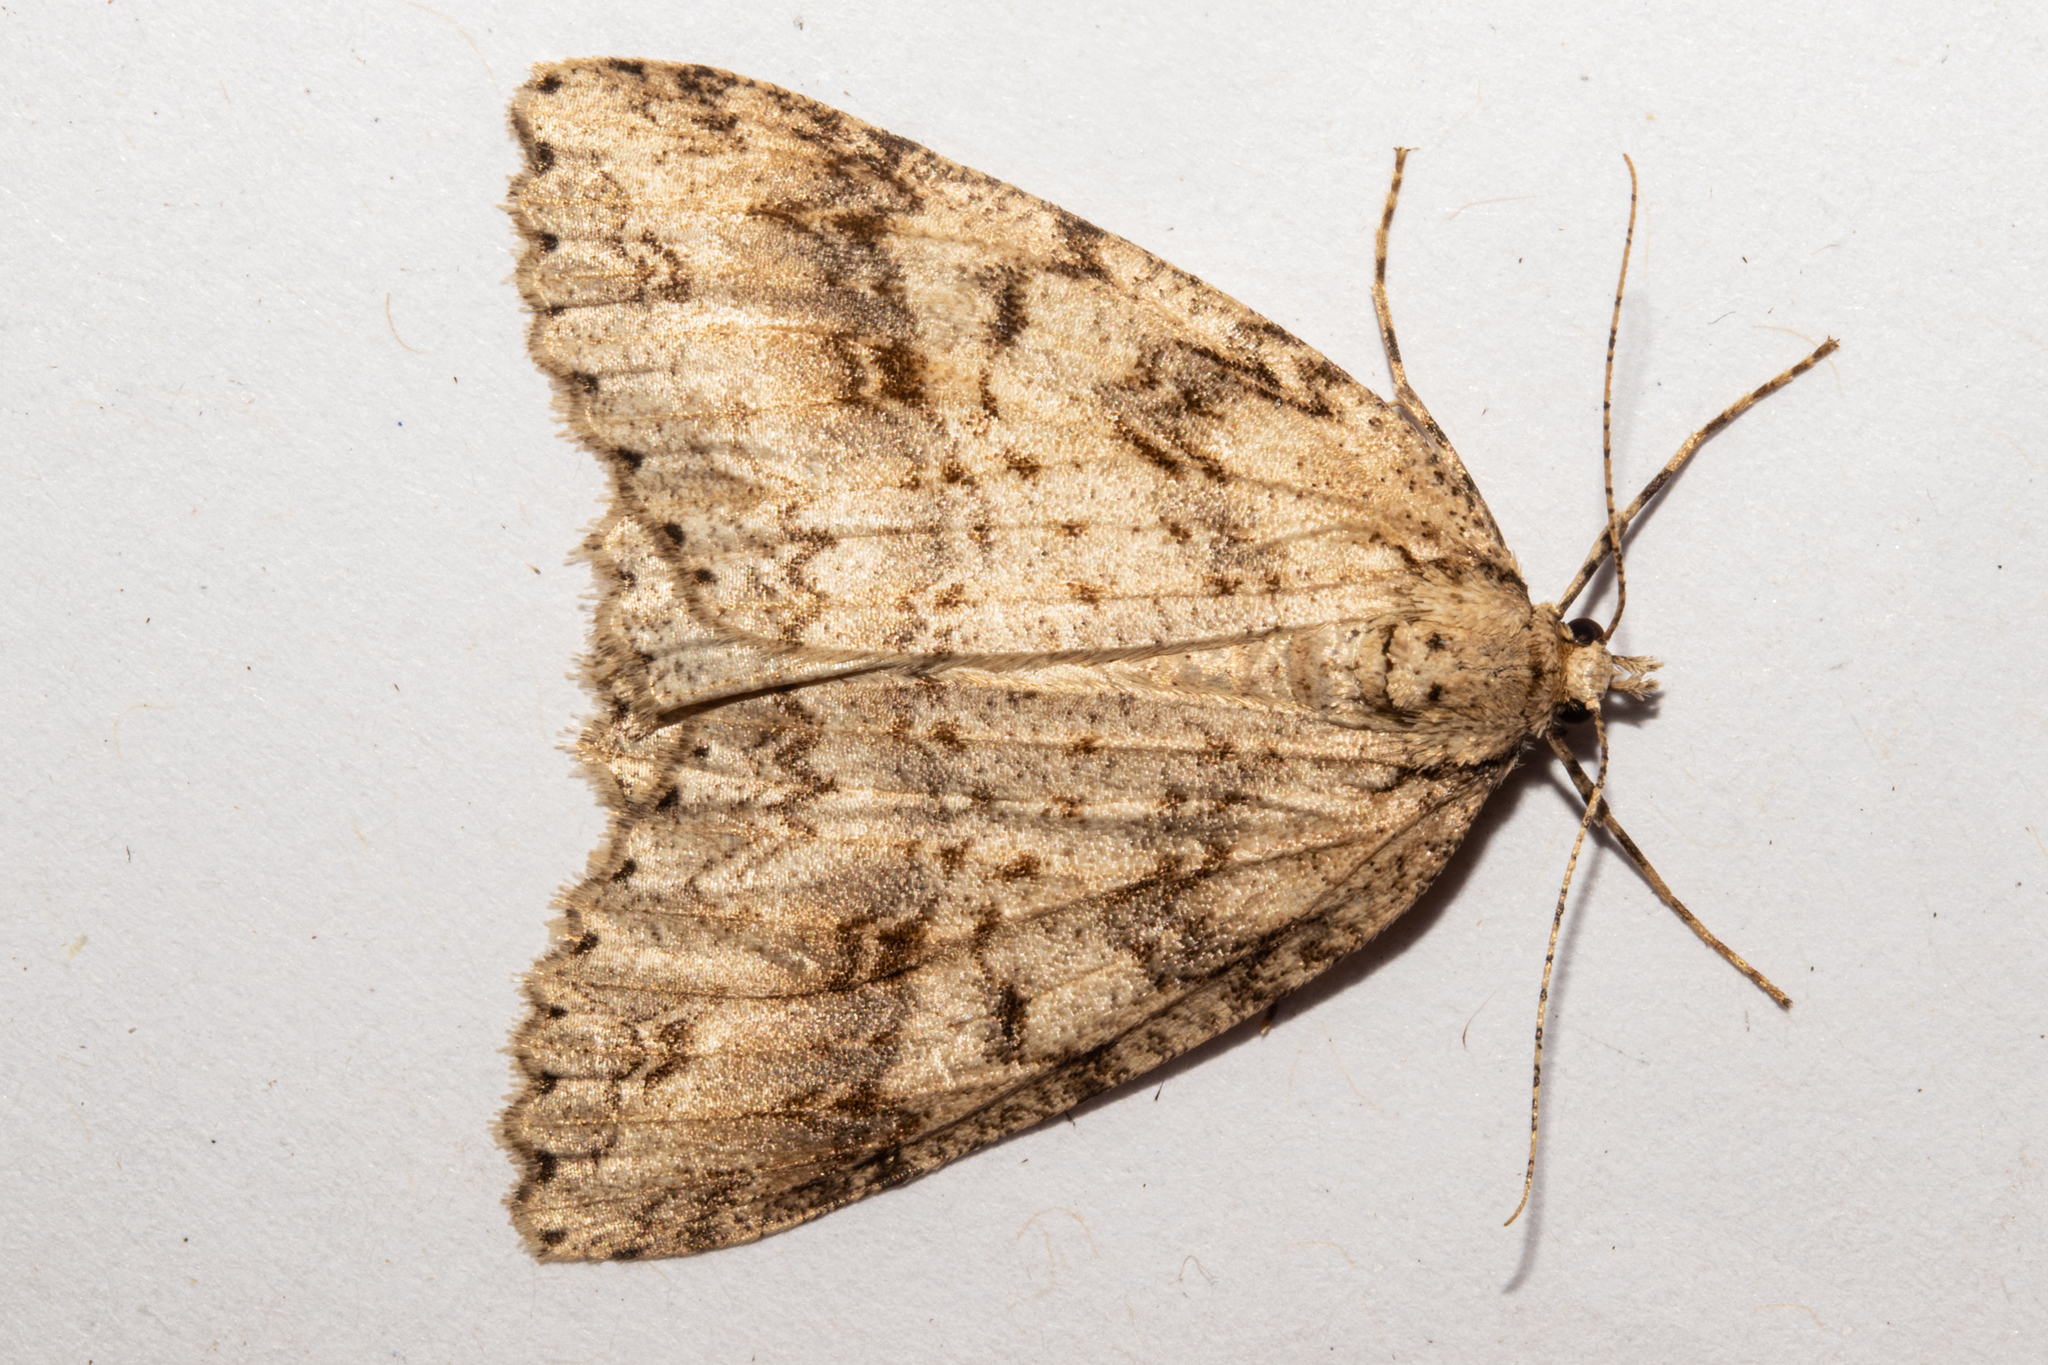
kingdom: Animalia
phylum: Arthropoda
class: Insecta
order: Lepidoptera
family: Geometridae
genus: Pseudocoremia
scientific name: Pseudocoremia rudisata
